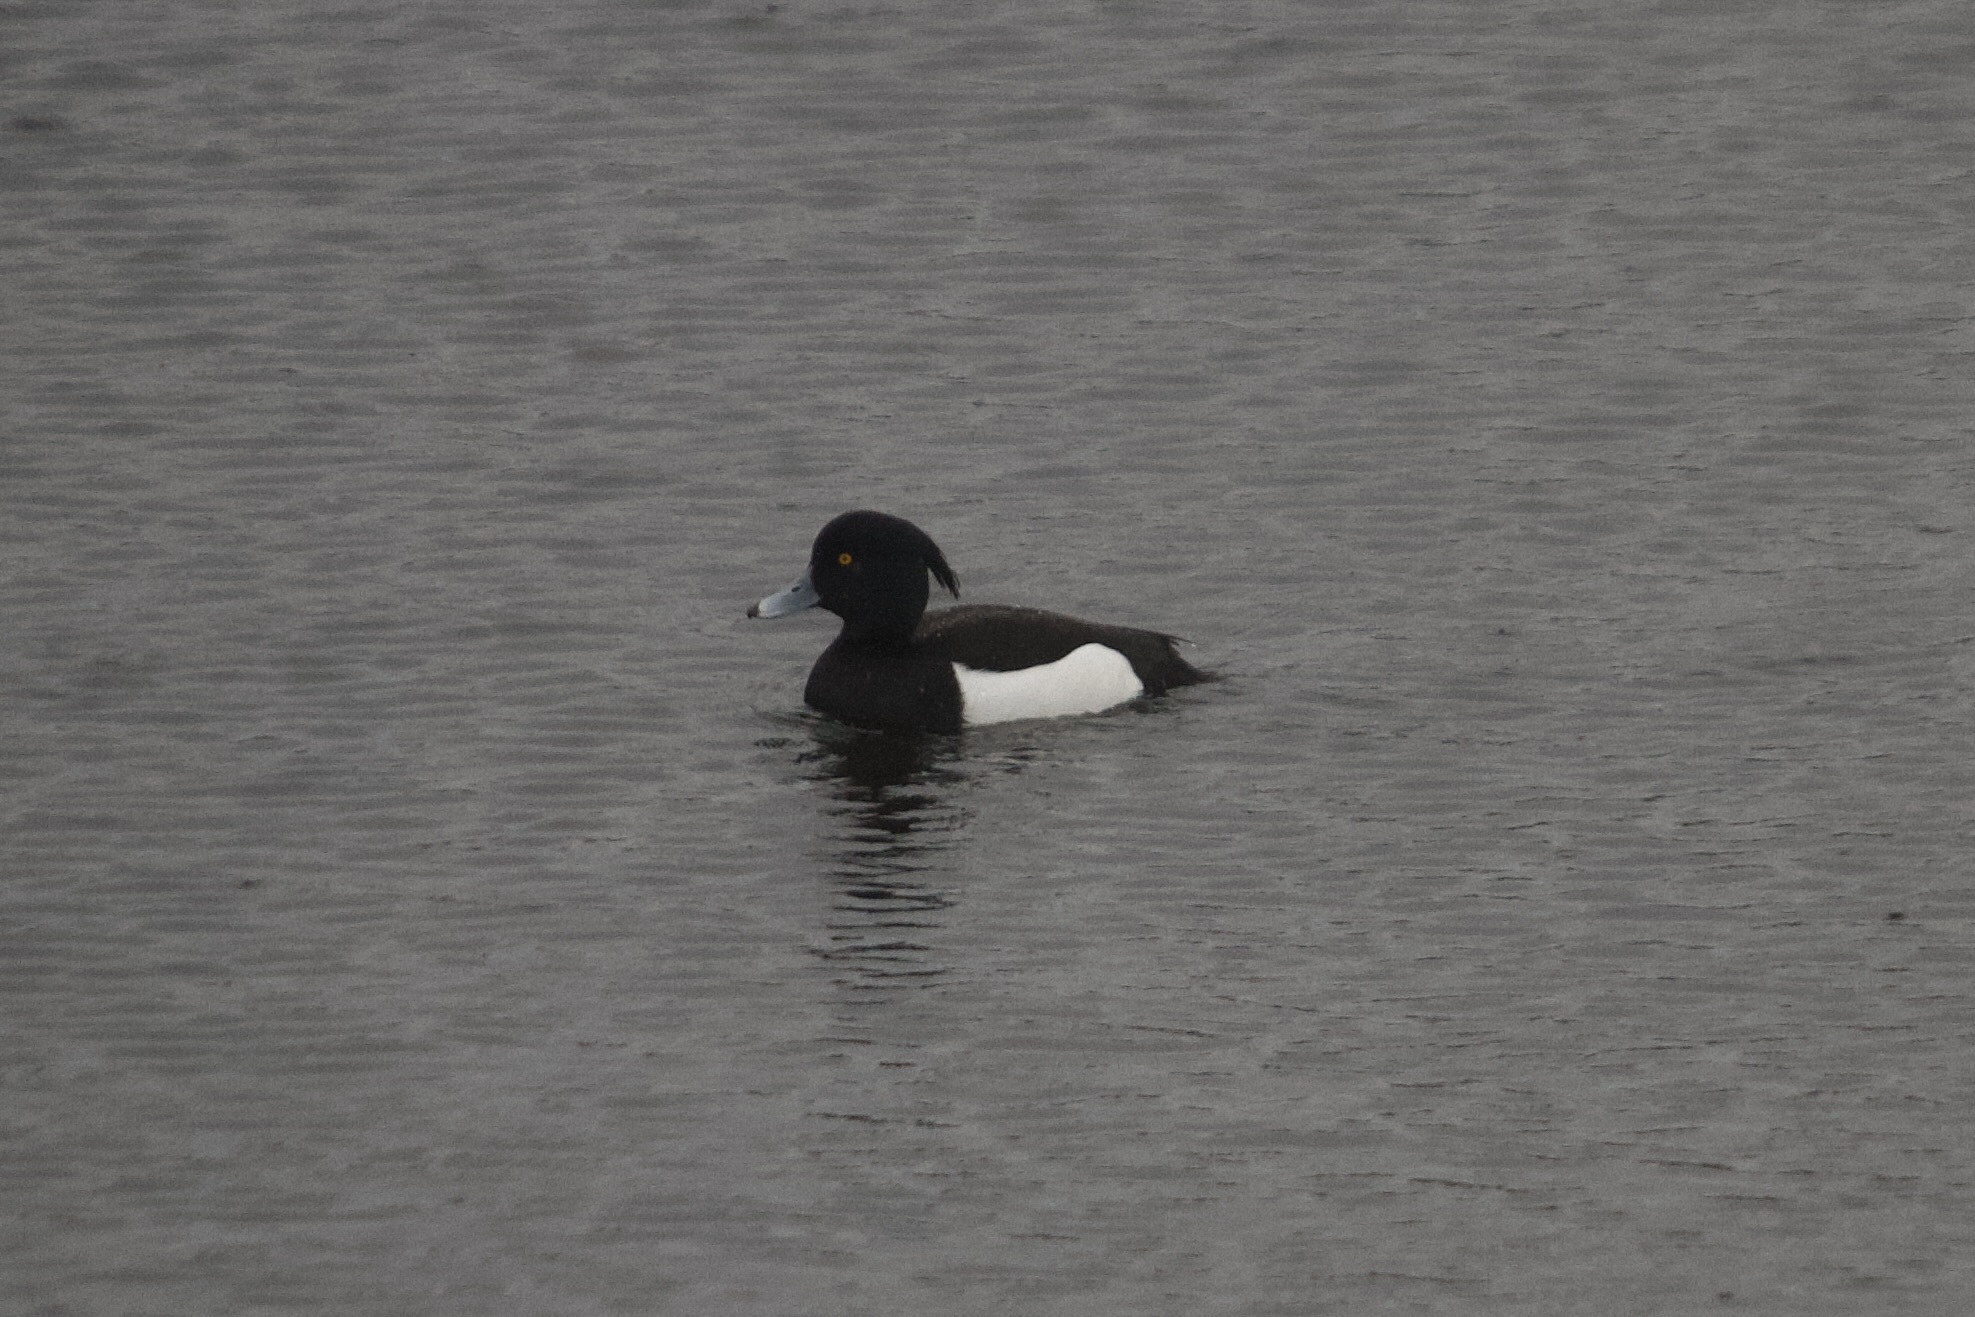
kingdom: Animalia
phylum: Chordata
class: Aves
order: Anseriformes
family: Anatidae
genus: Aythya
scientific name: Aythya fuligula
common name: Tufted duck
